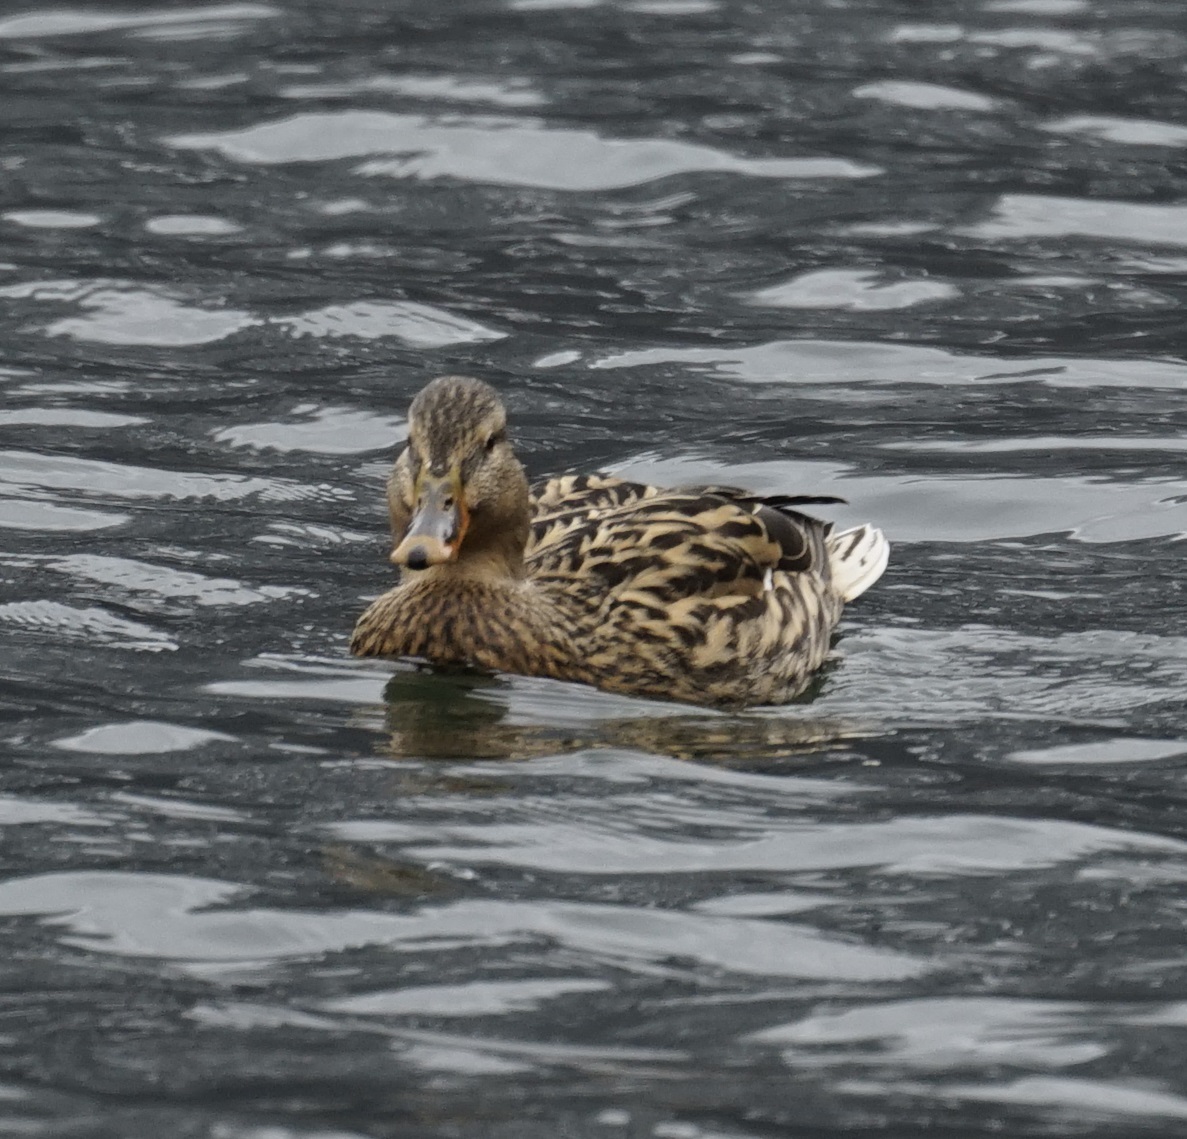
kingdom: Animalia
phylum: Chordata
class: Aves
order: Anseriformes
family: Anatidae
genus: Anas
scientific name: Anas platyrhynchos
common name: Mallard
